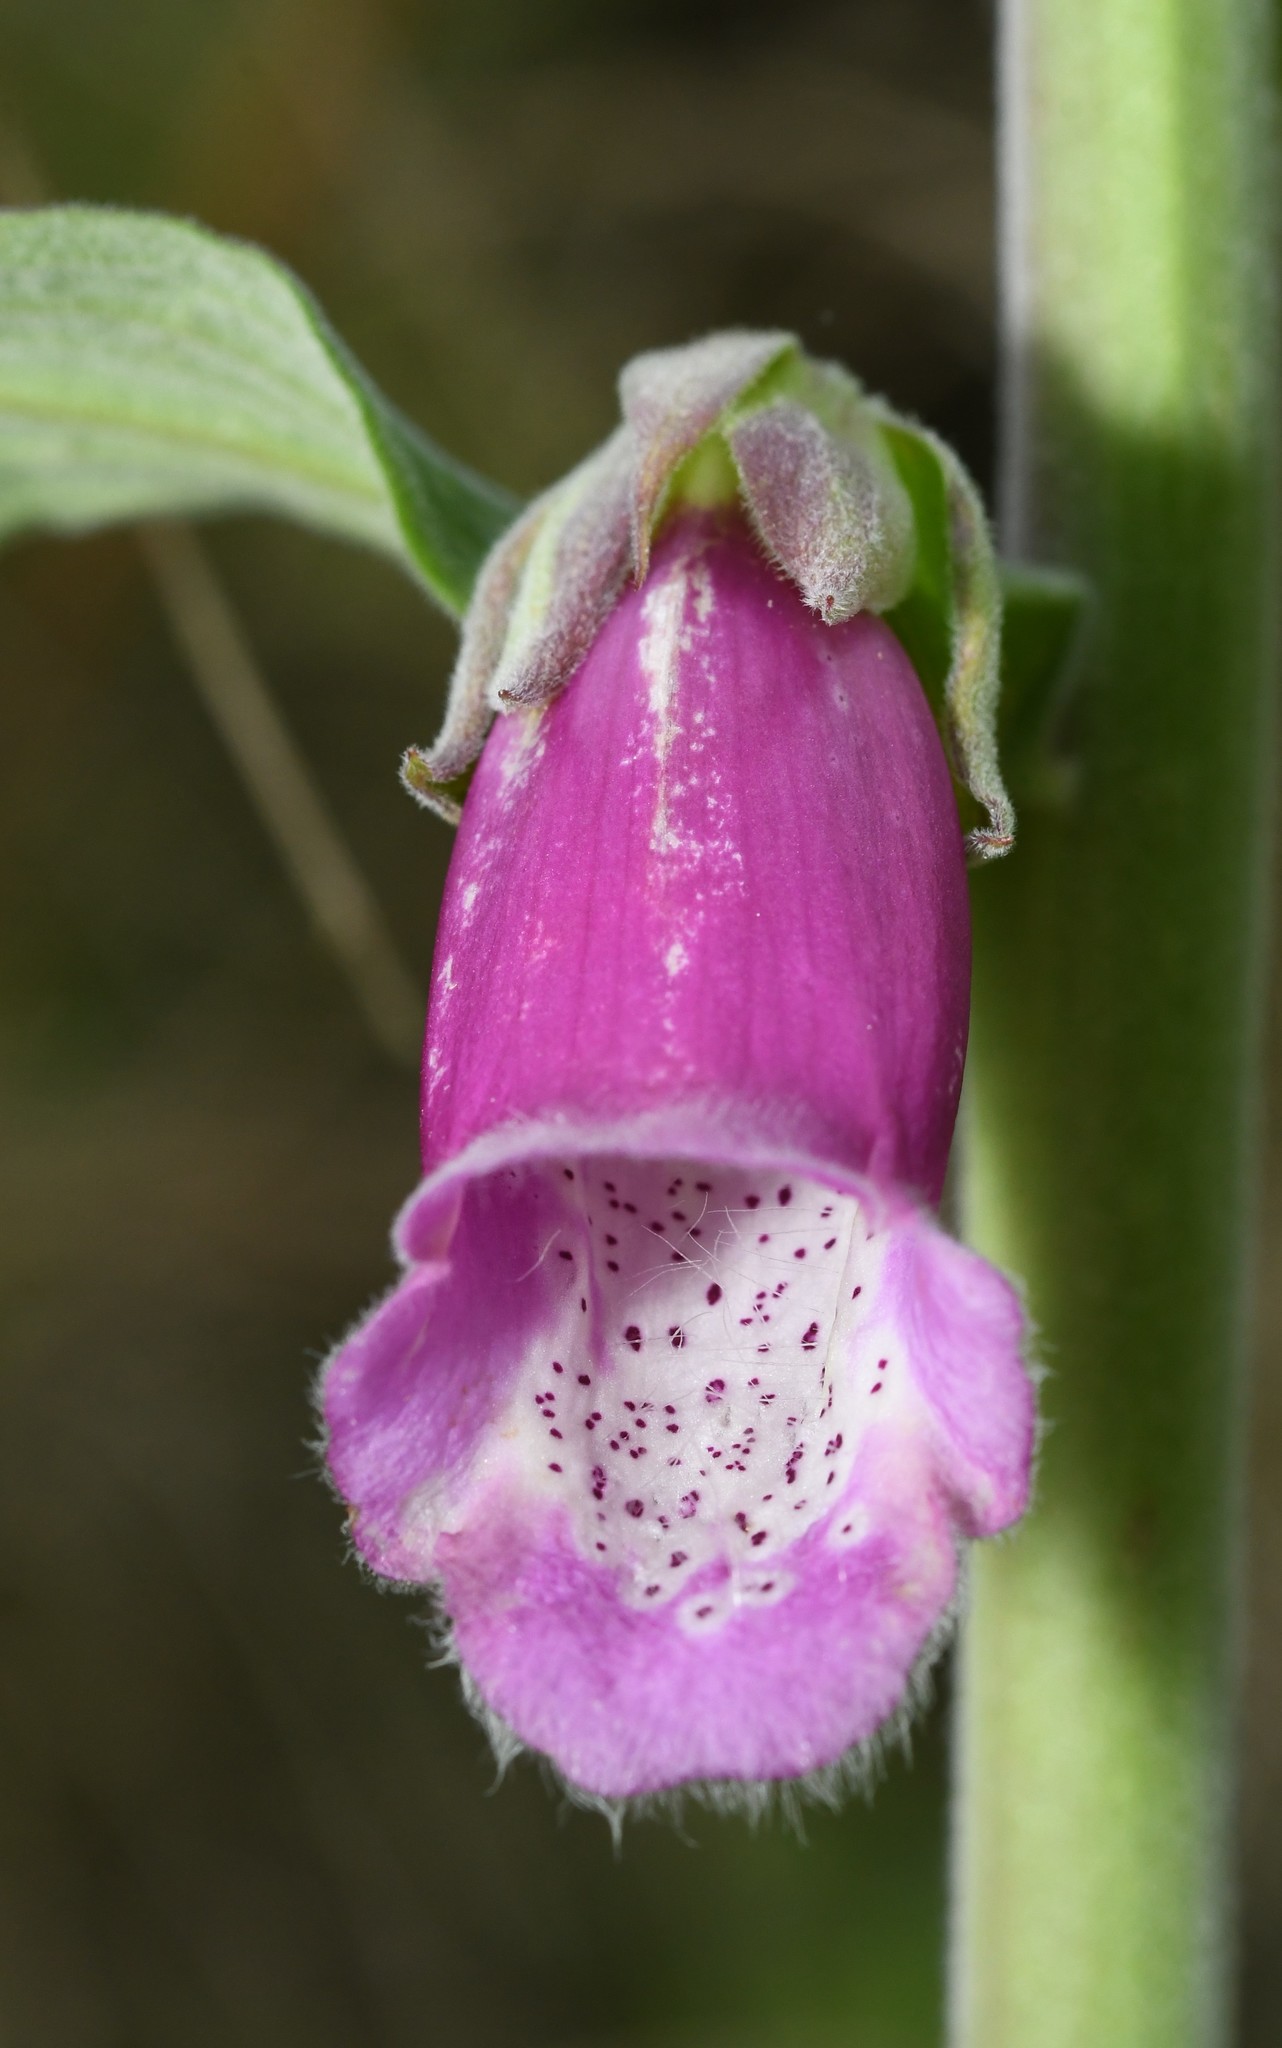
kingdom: Plantae
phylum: Tracheophyta
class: Magnoliopsida
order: Lamiales
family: Plantaginaceae
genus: Digitalis
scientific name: Digitalis purpurea
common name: Foxglove
